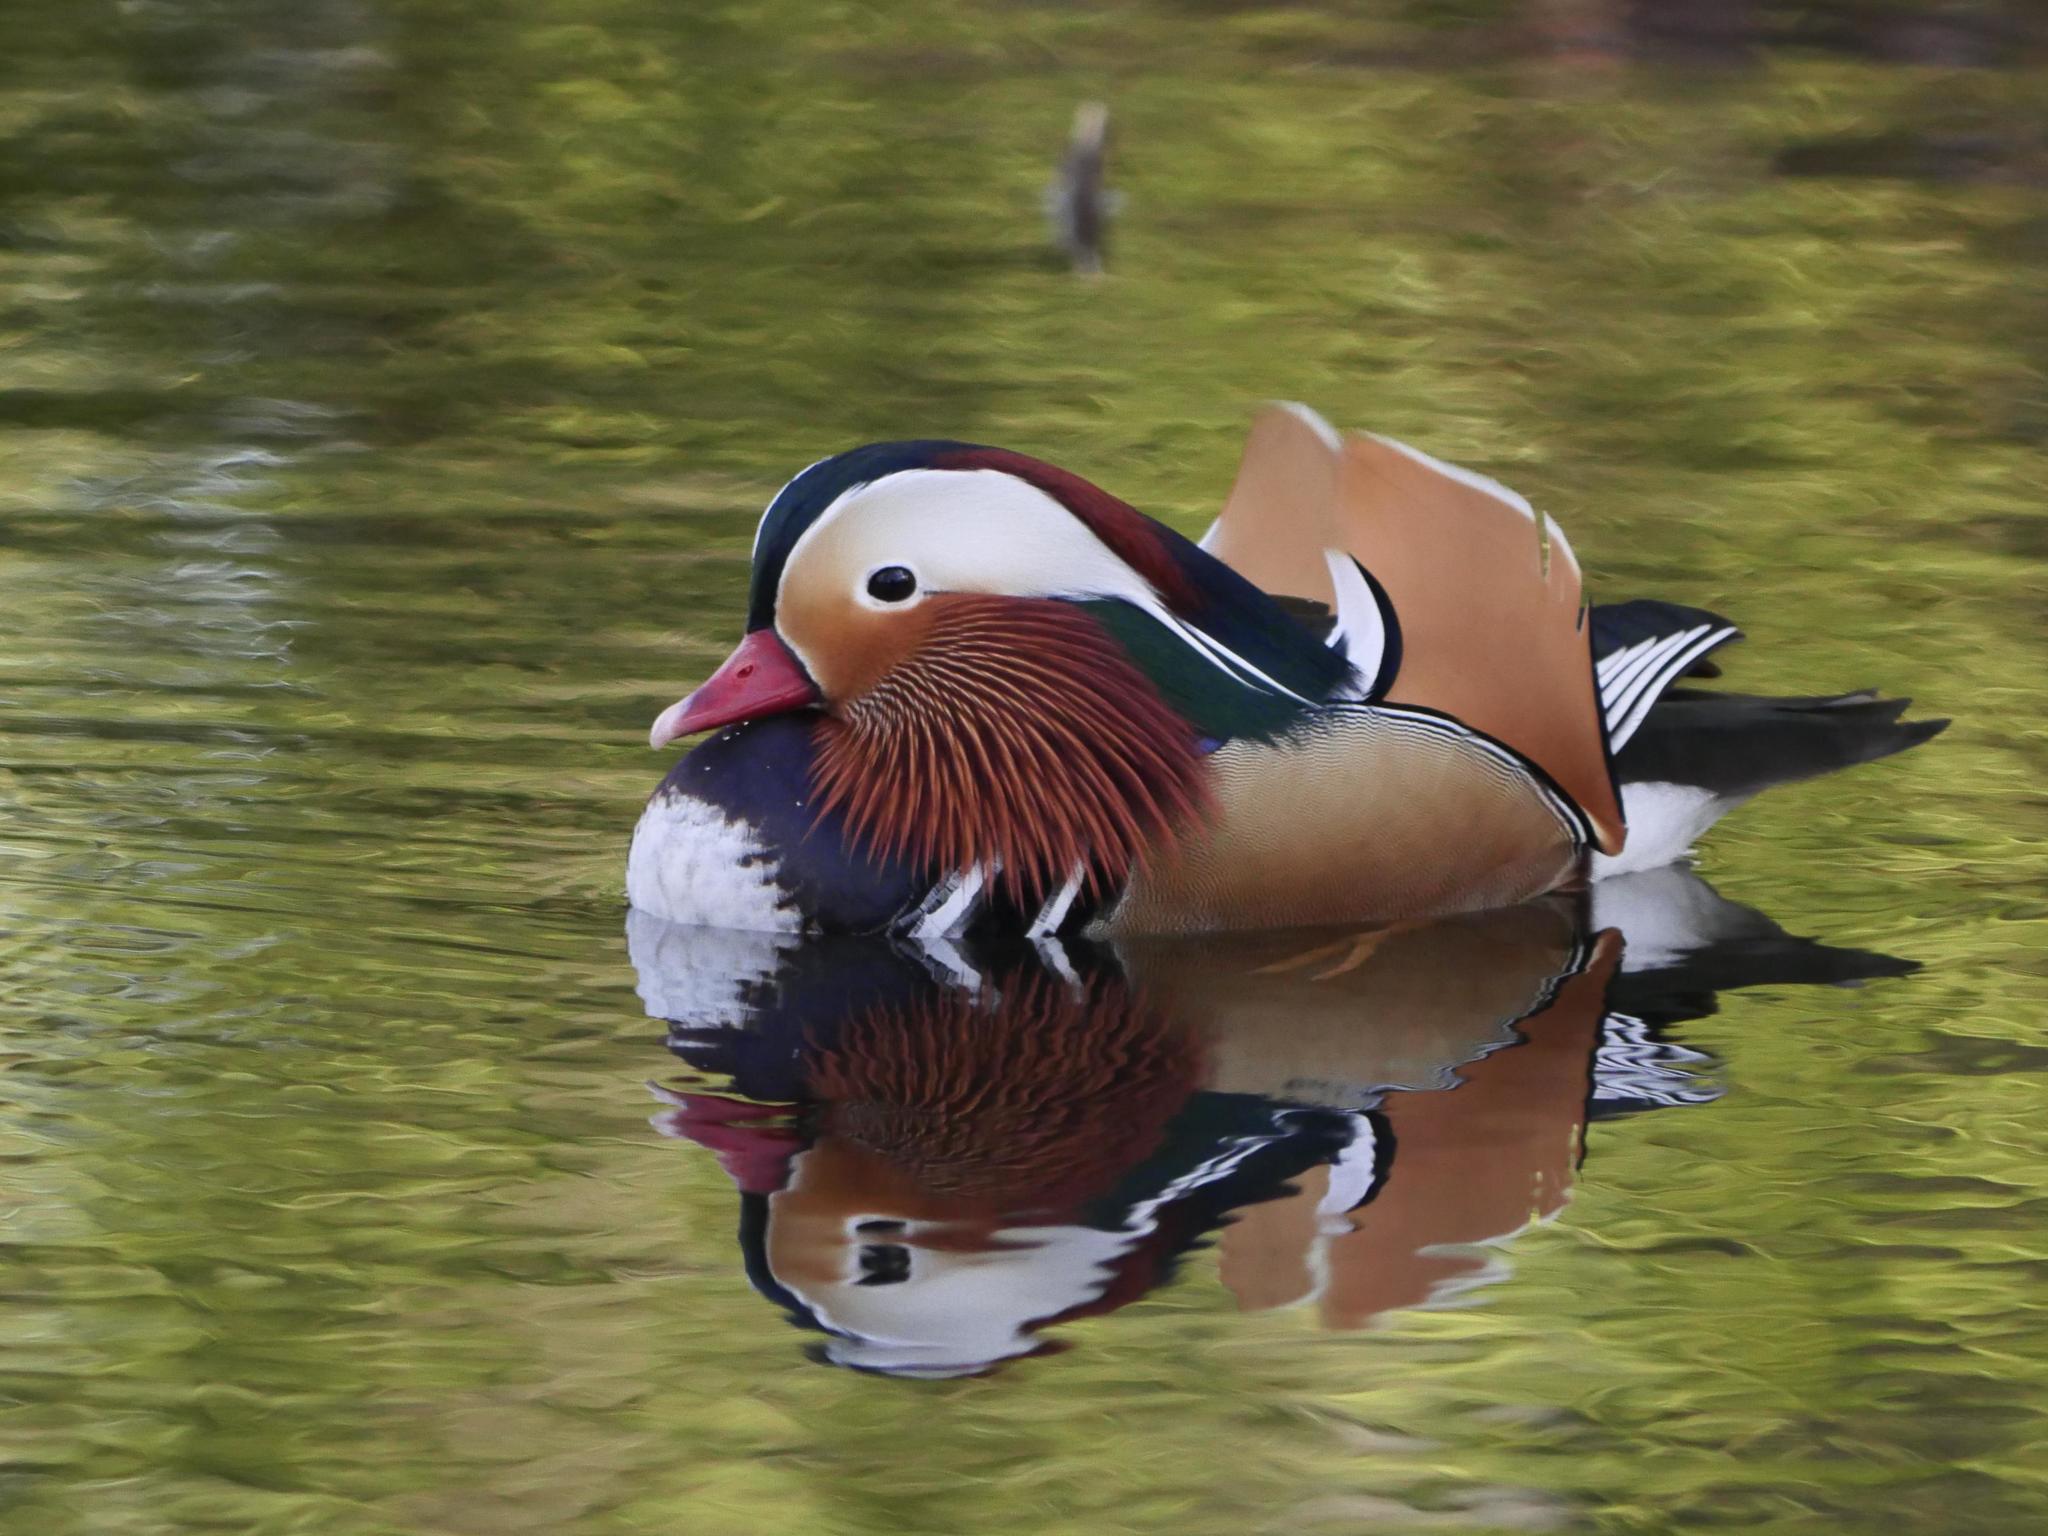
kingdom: Animalia
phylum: Chordata
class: Aves
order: Anseriformes
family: Anatidae
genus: Aix
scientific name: Aix galericulata
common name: Mandarin duck
